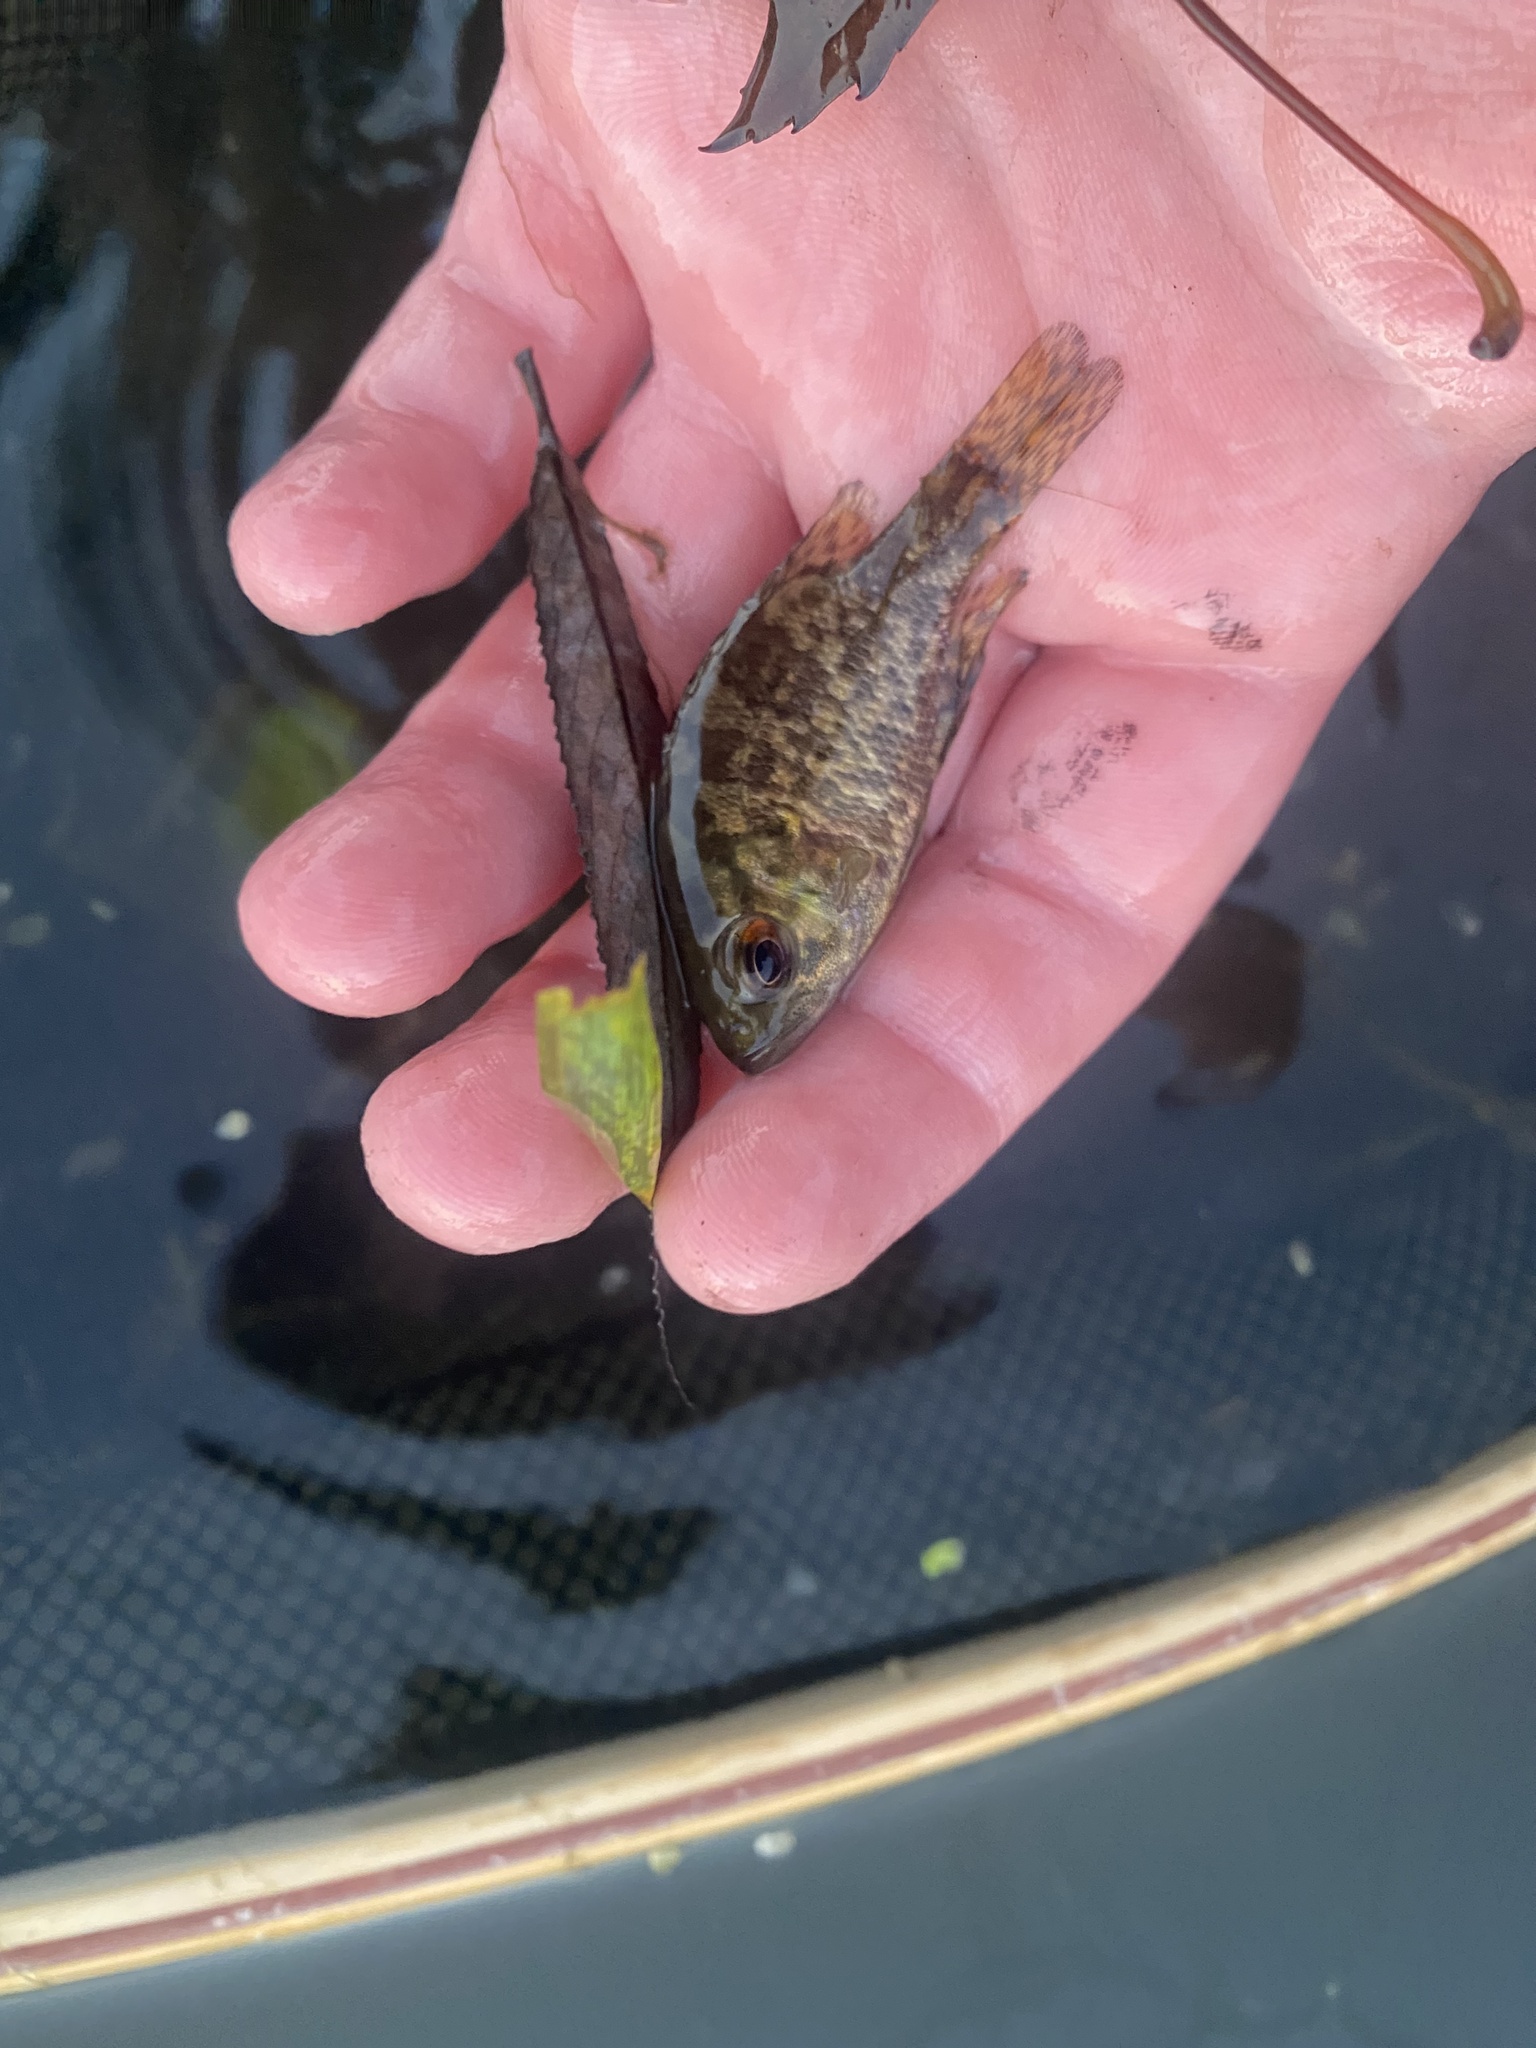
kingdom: Animalia
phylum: Chordata
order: Perciformes
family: Centrarchidae
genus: Ambloplites
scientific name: Ambloplites rupestris
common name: Rock bass
